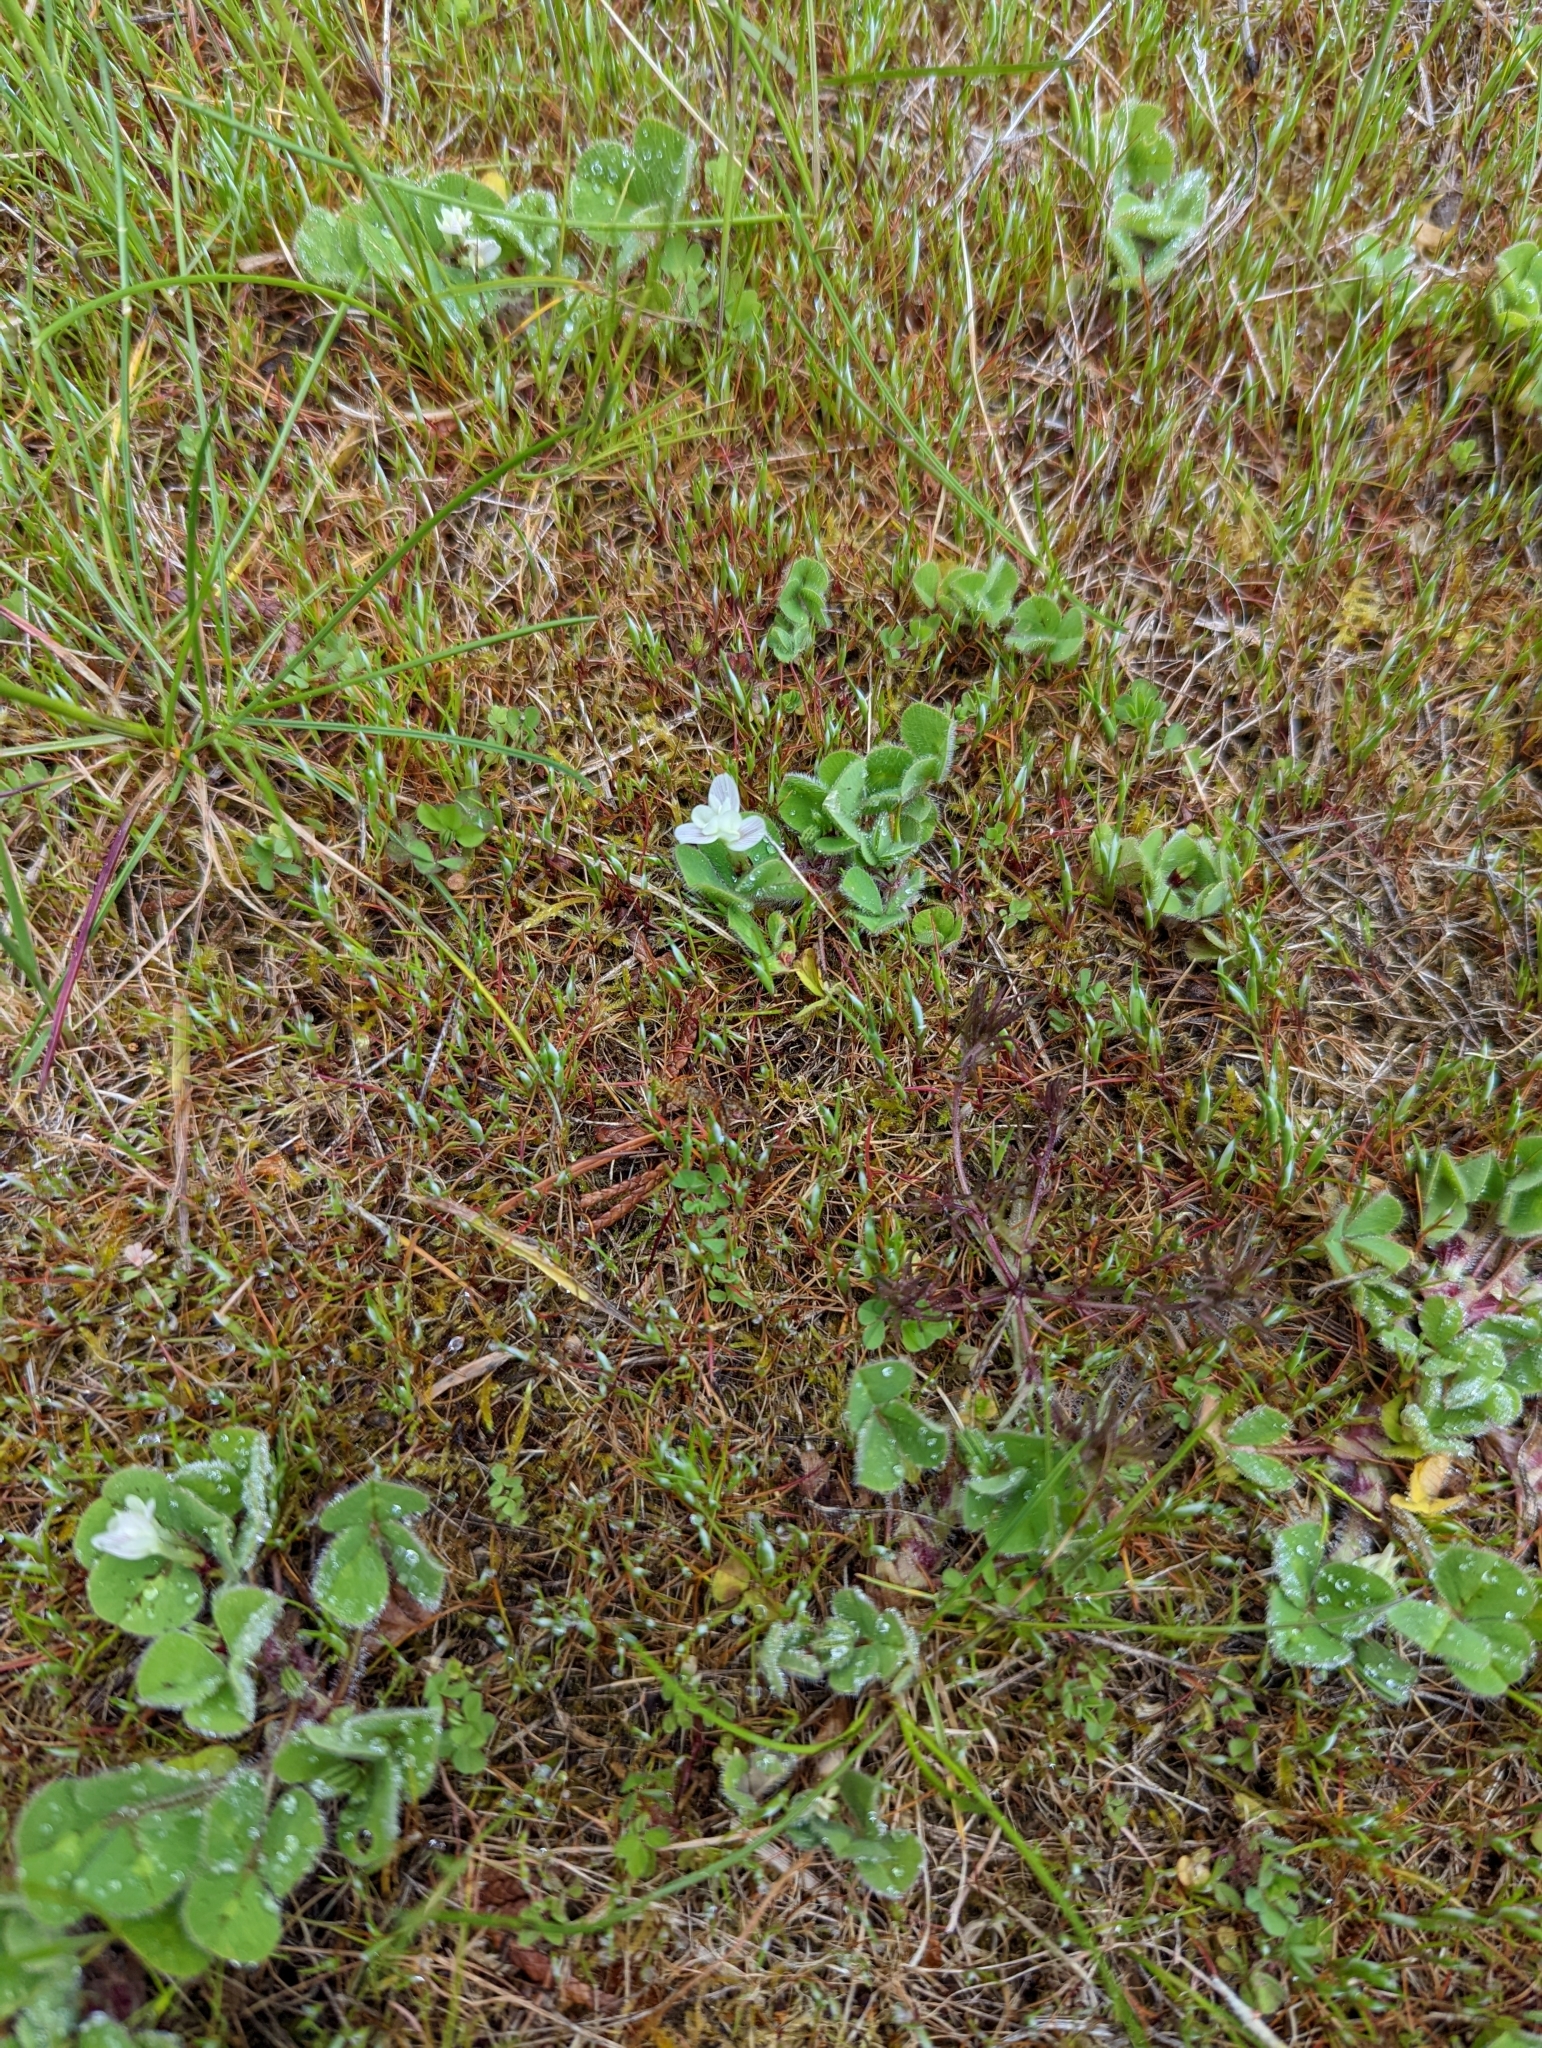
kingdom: Plantae
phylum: Tracheophyta
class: Magnoliopsida
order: Fabales
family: Fabaceae
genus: Trifolium
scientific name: Trifolium subterraneum
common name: Subterranean clover
